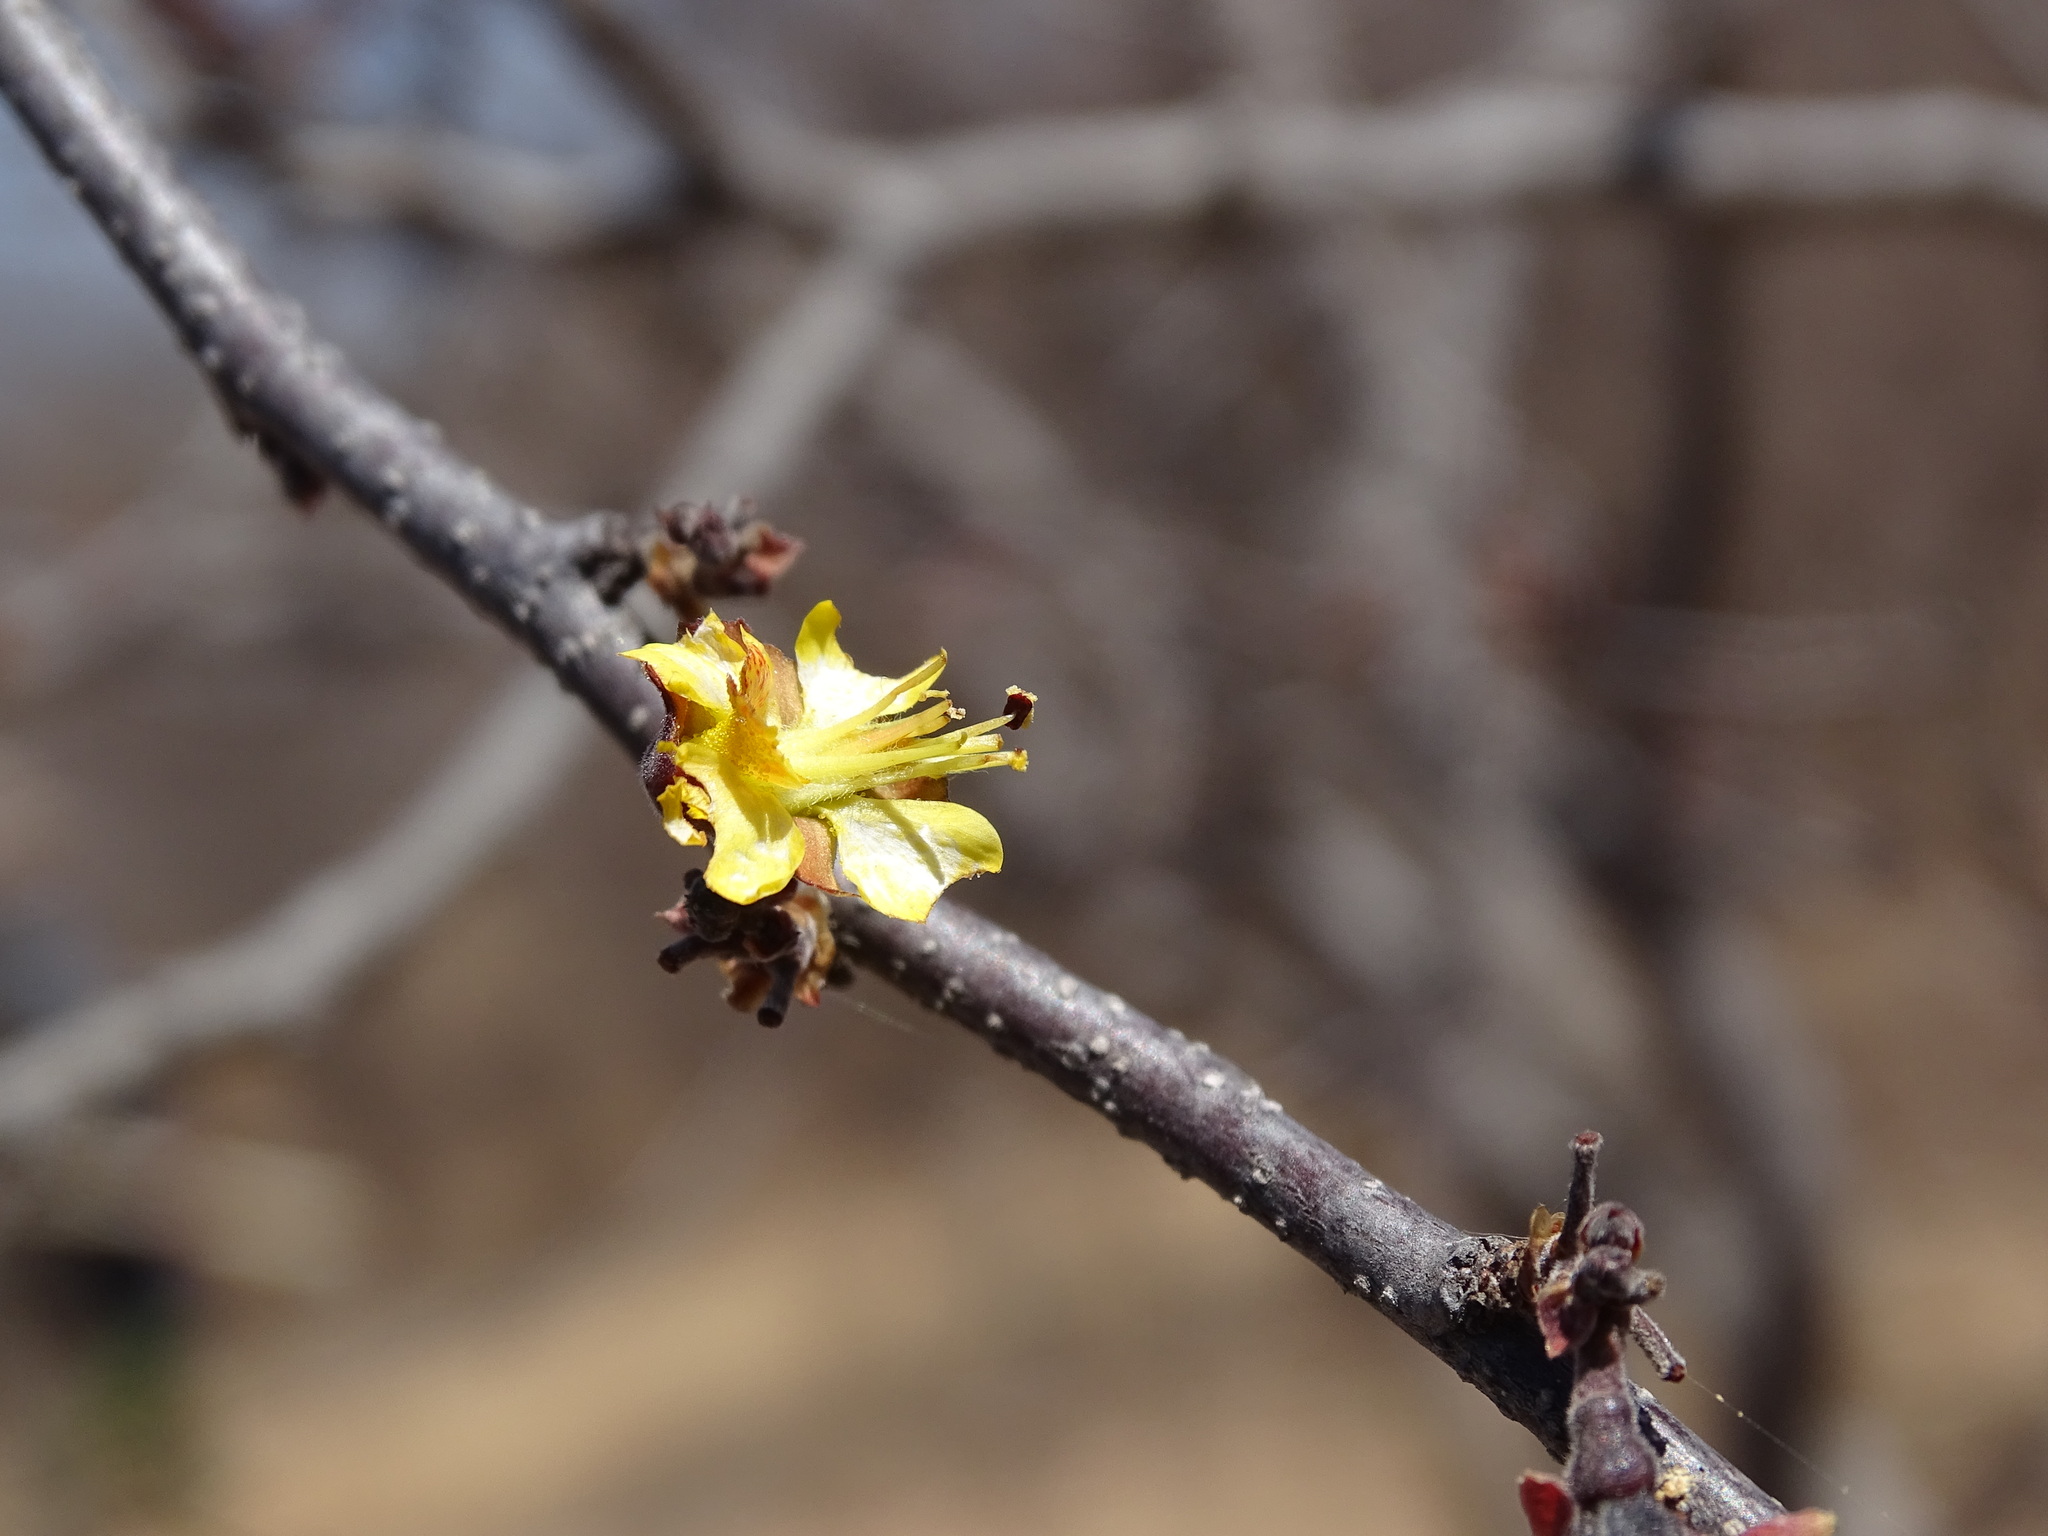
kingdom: Plantae
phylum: Tracheophyta
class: Magnoliopsida
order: Fabales
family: Fabaceae
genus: Erythrostemon
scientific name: Erythrostemon palmeri
